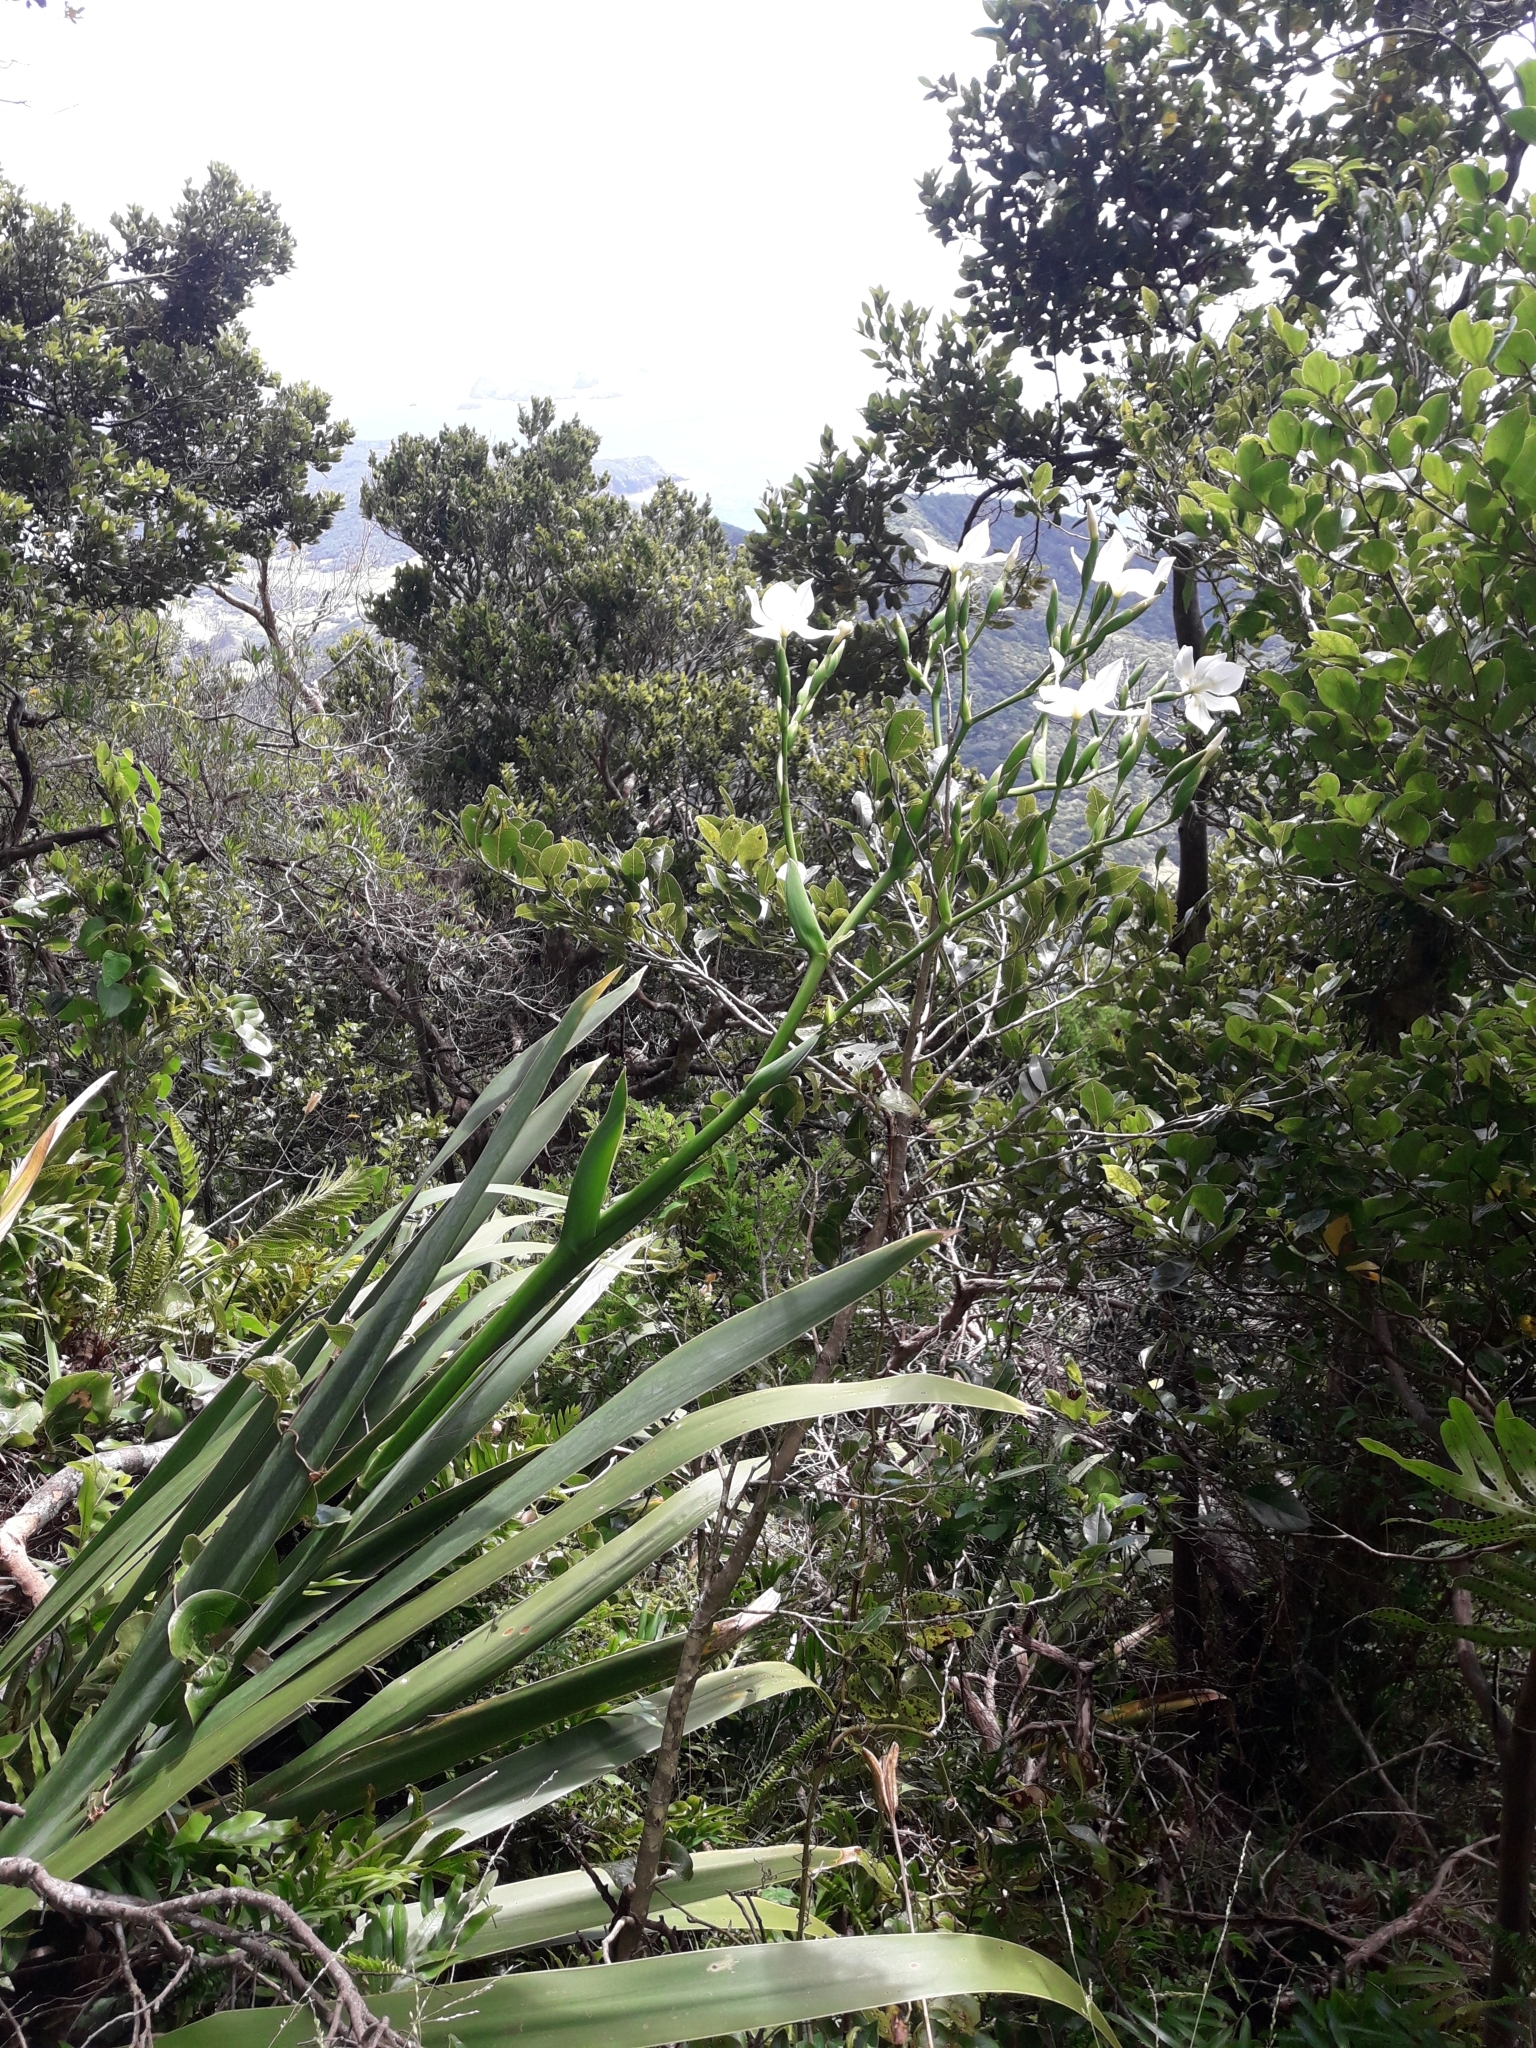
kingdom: Plantae
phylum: Tracheophyta
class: Liliopsida
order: Asparagales
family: Iridaceae
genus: Dietes
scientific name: Dietes robinsoniana
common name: Wedding-lily
